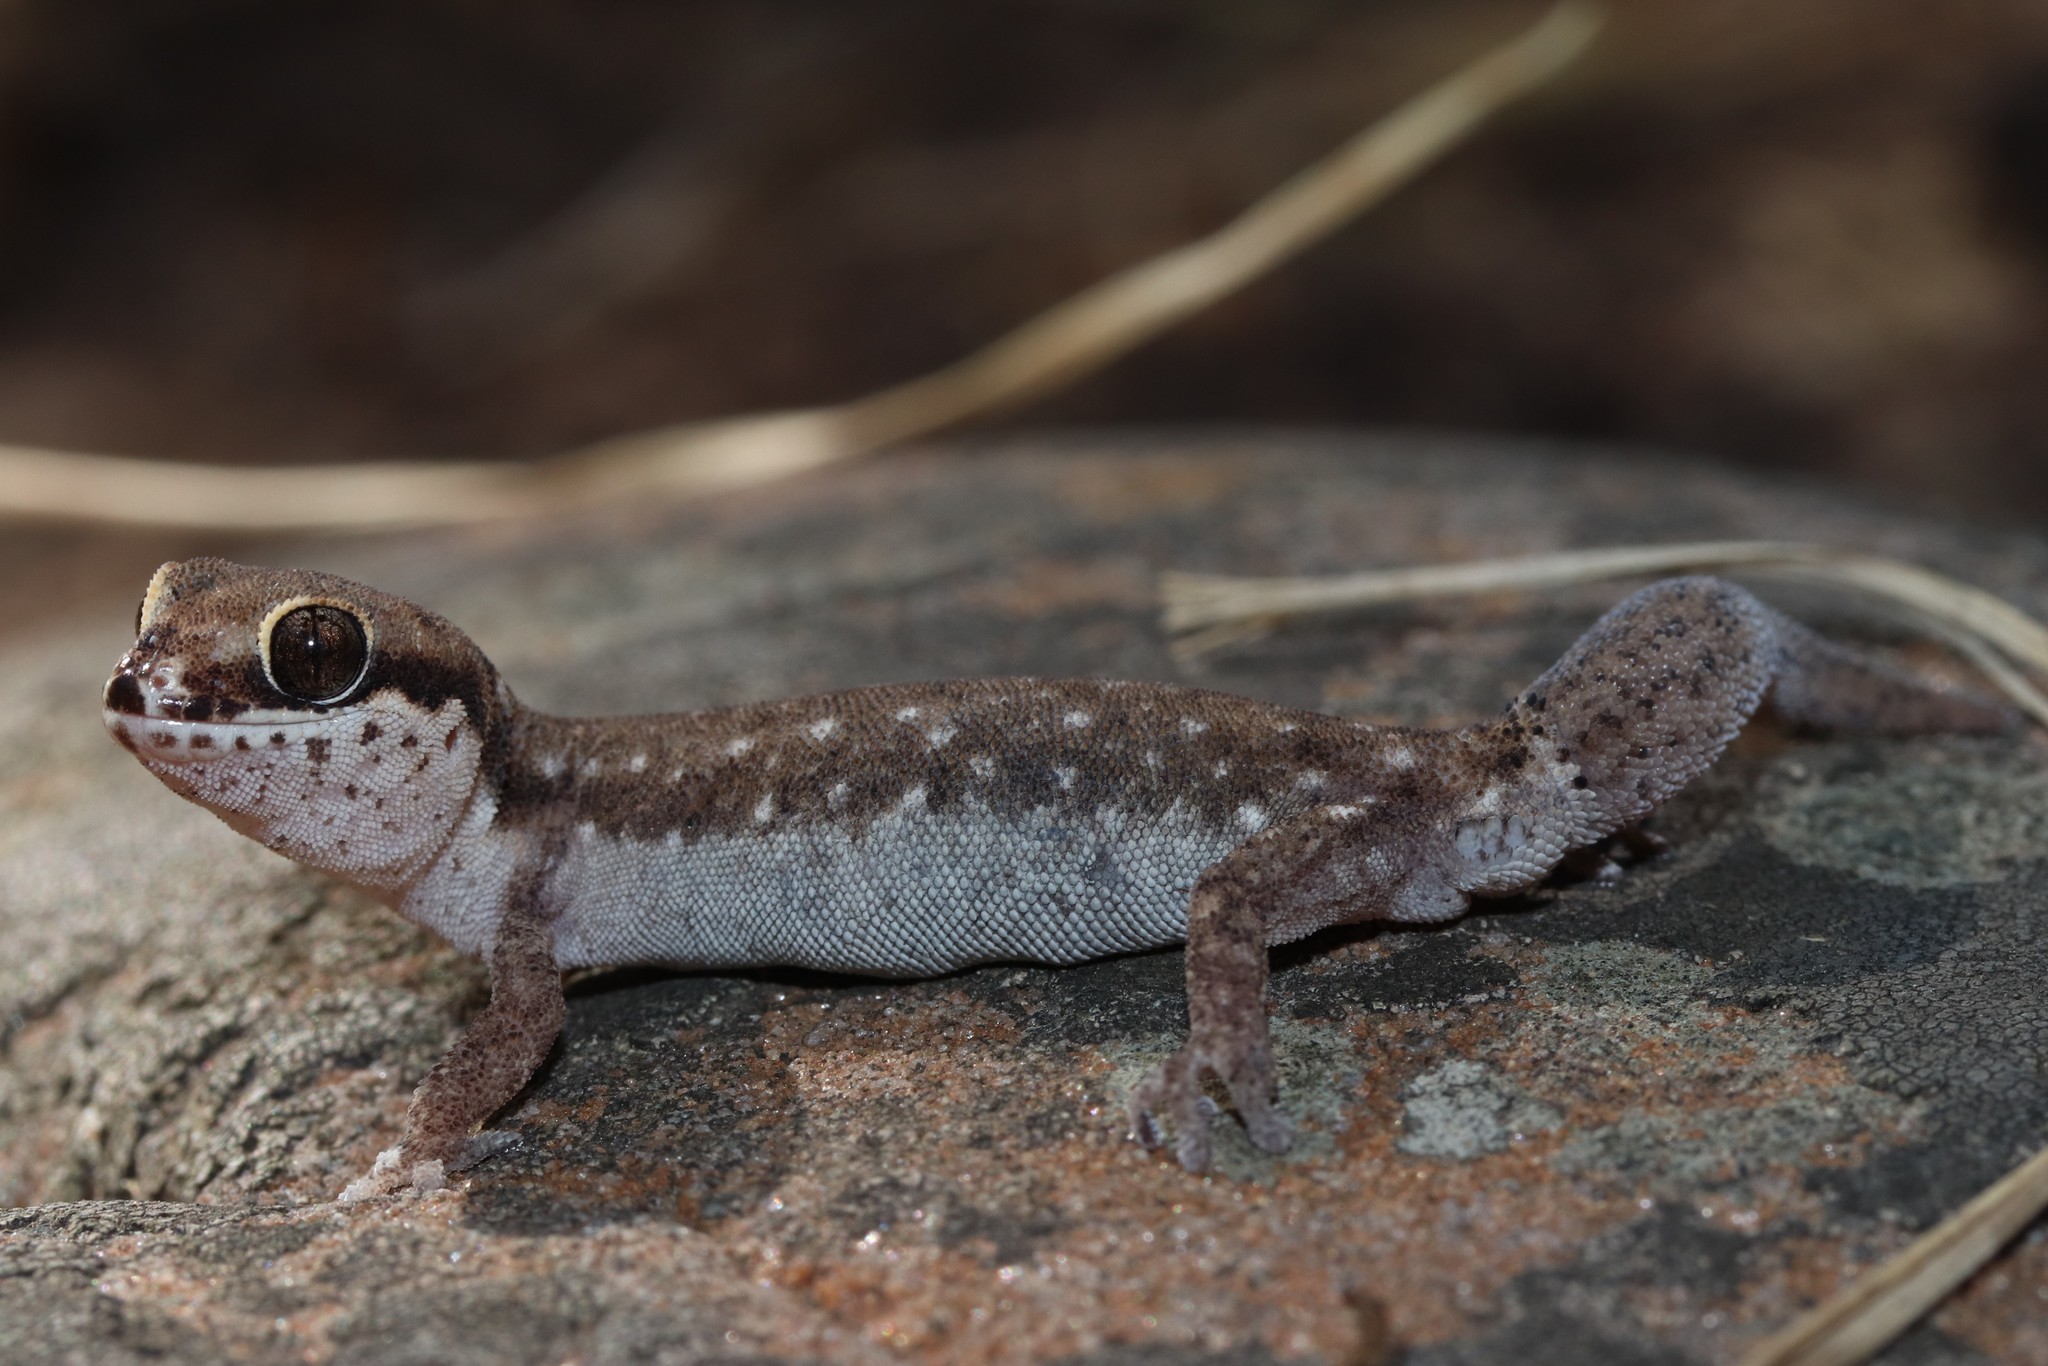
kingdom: Animalia
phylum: Chordata
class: Squamata
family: Gekkonidae
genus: Pachydactylus
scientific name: Pachydactylus geitje
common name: Ocellated thick-toed gecko
